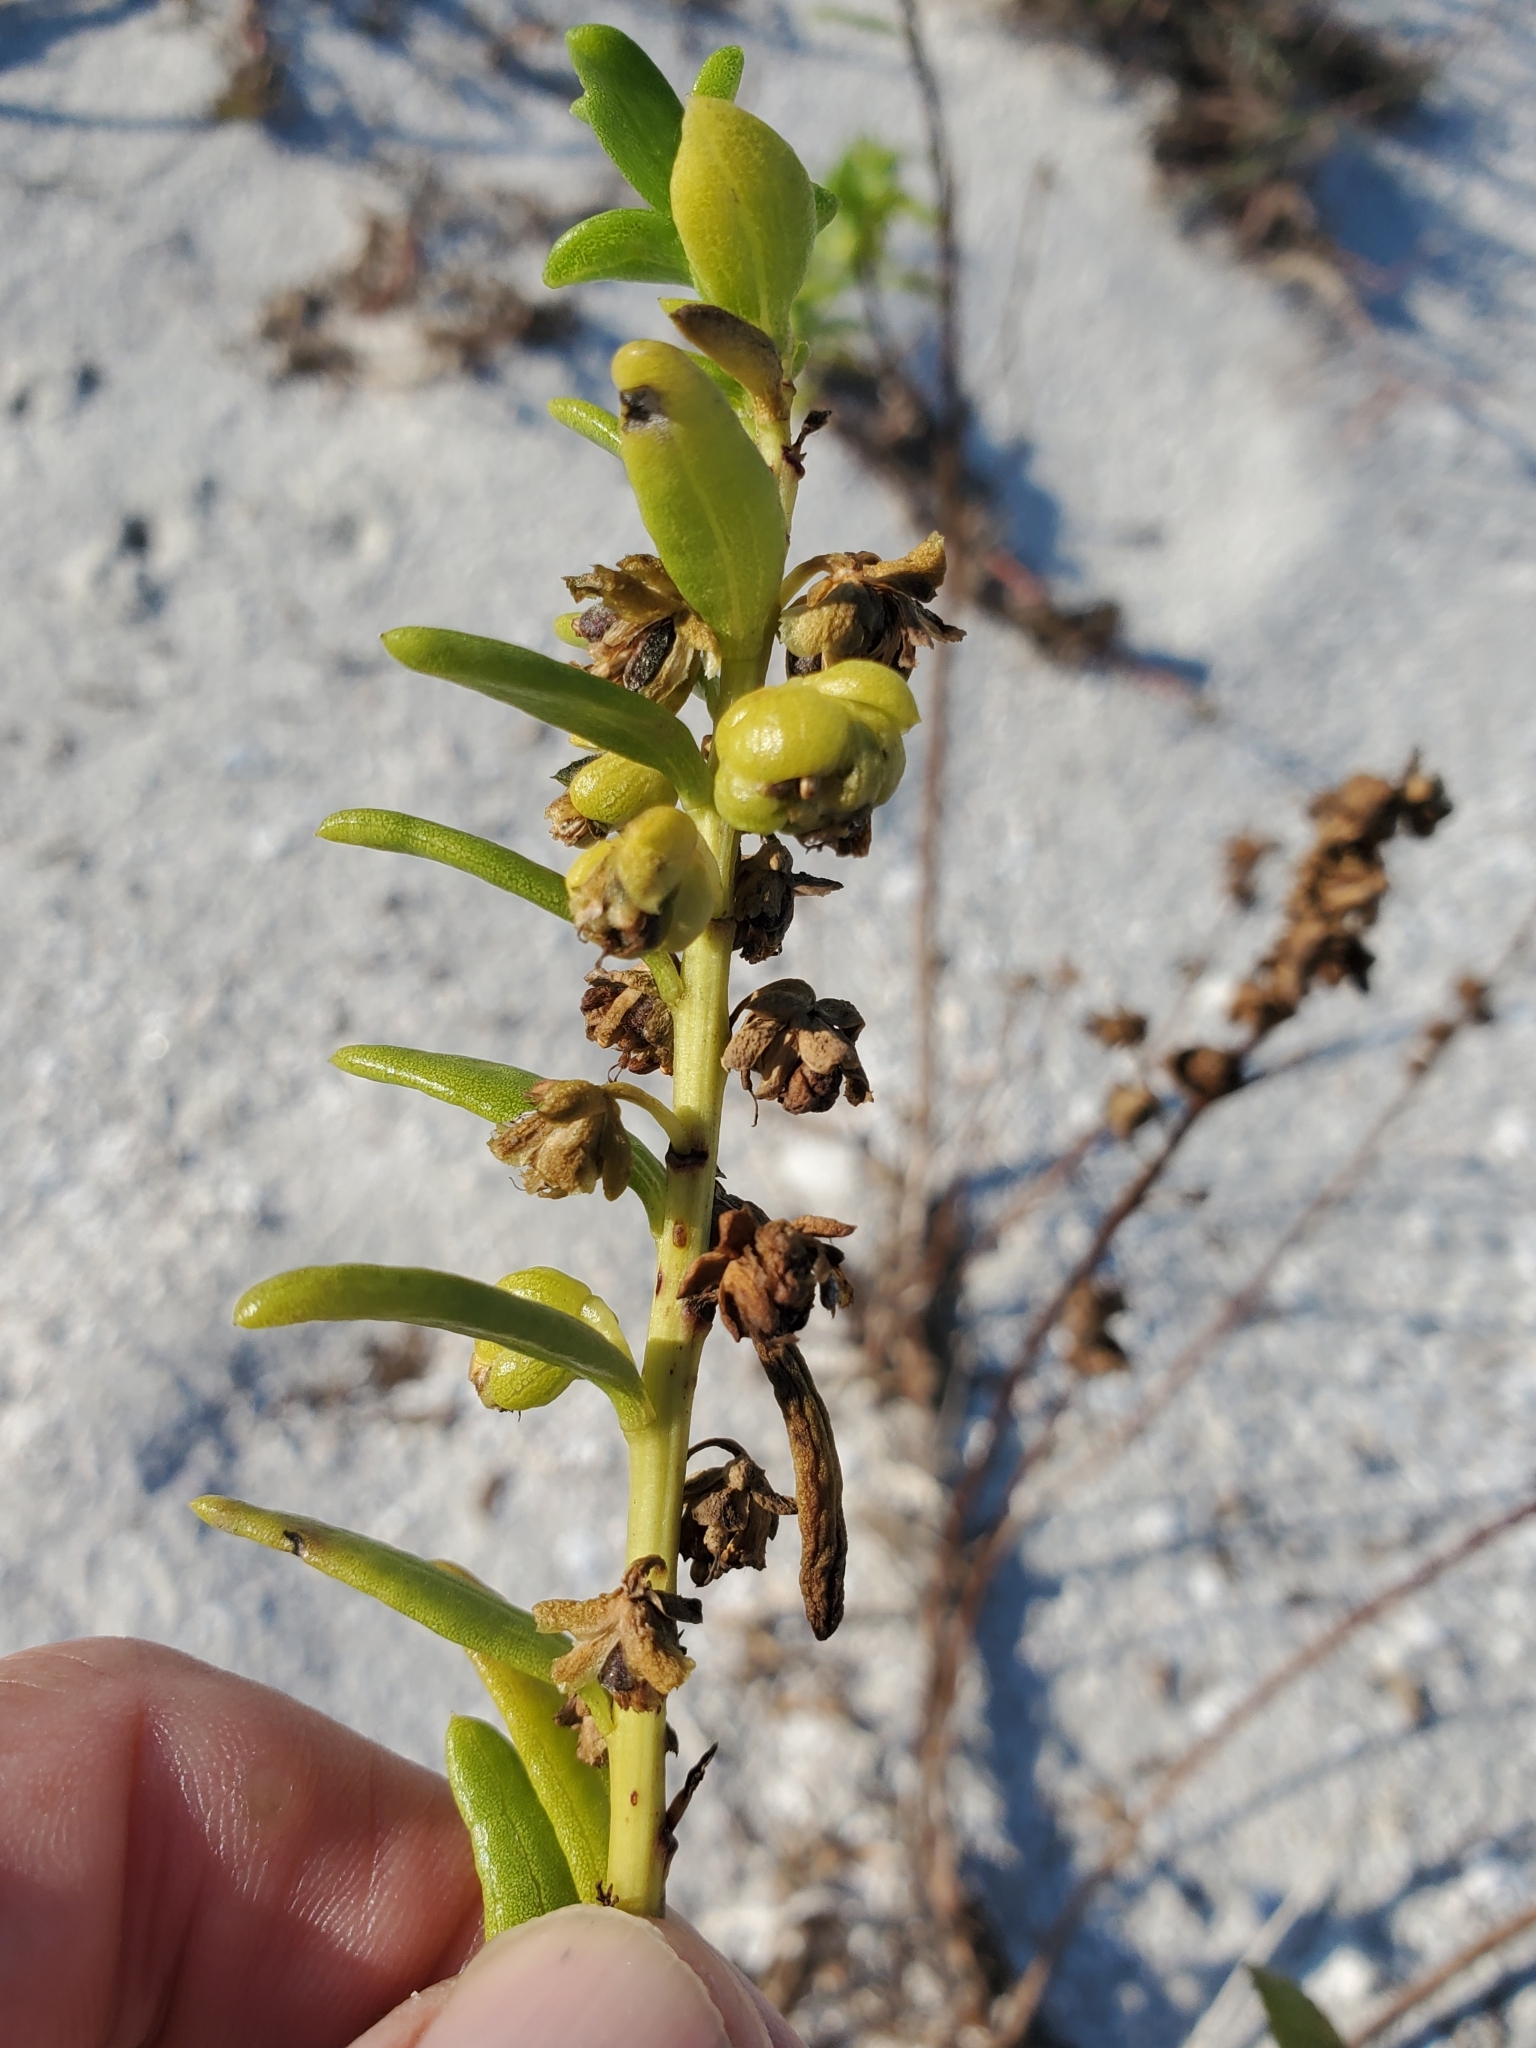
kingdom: Plantae
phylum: Tracheophyta
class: Magnoliopsida
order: Asterales
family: Asteraceae
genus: Iva
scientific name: Iva imbricata
